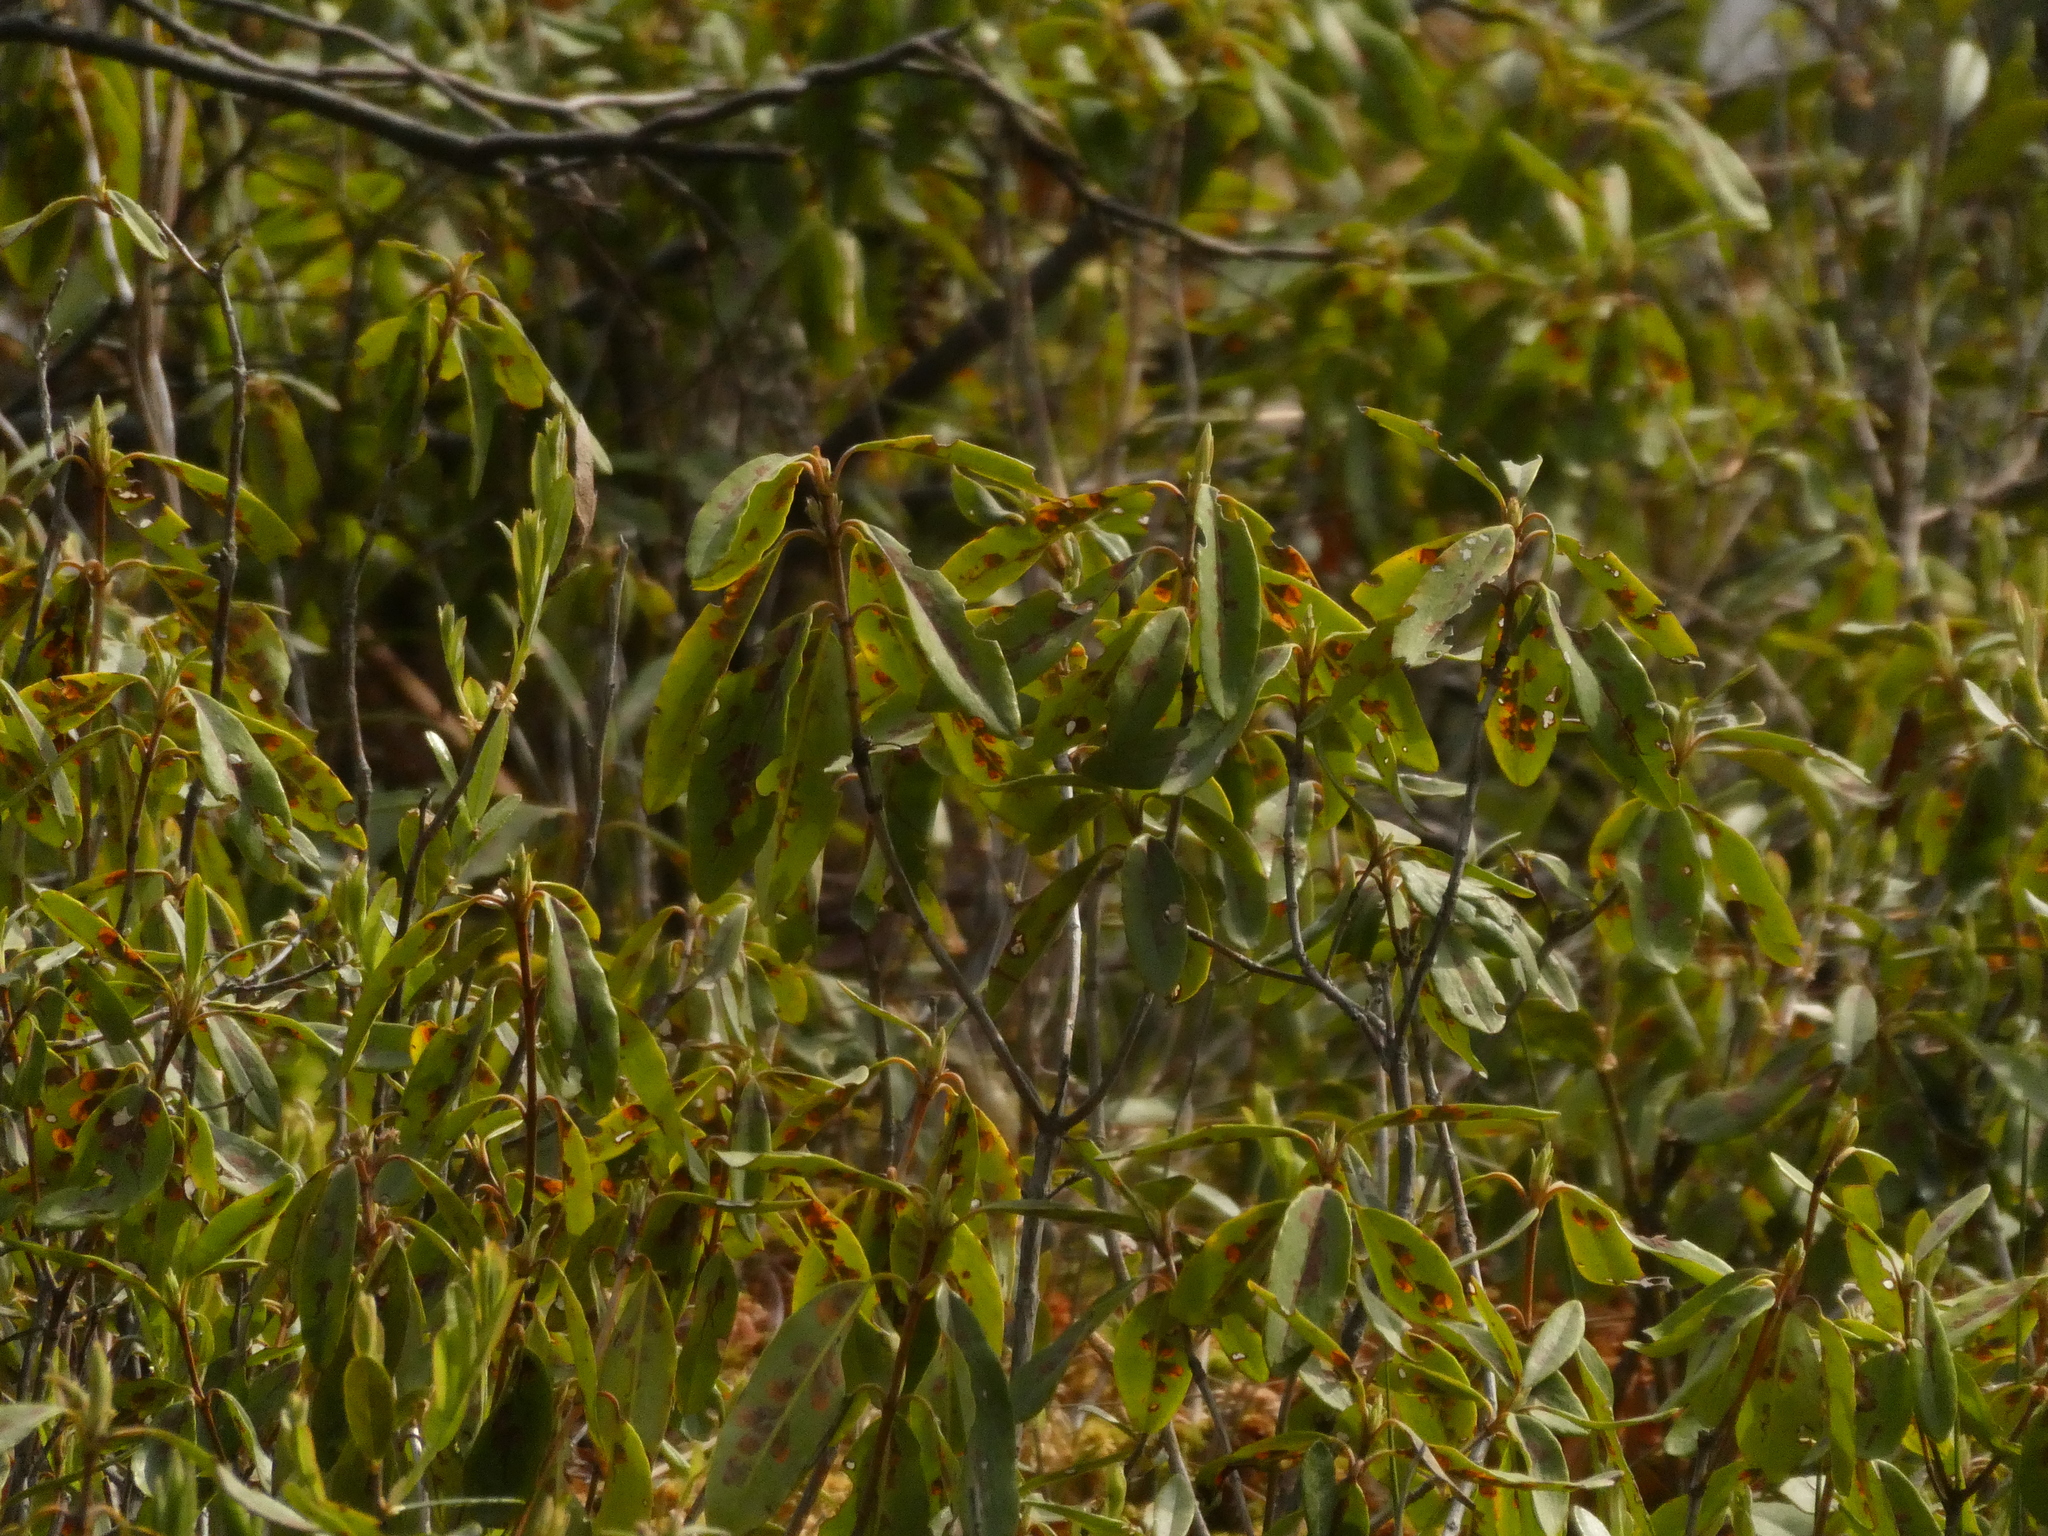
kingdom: Plantae
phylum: Tracheophyta
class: Magnoliopsida
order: Ericales
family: Ericaceae
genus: Kalmia
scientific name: Kalmia angustifolia
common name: Sheep-laurel
